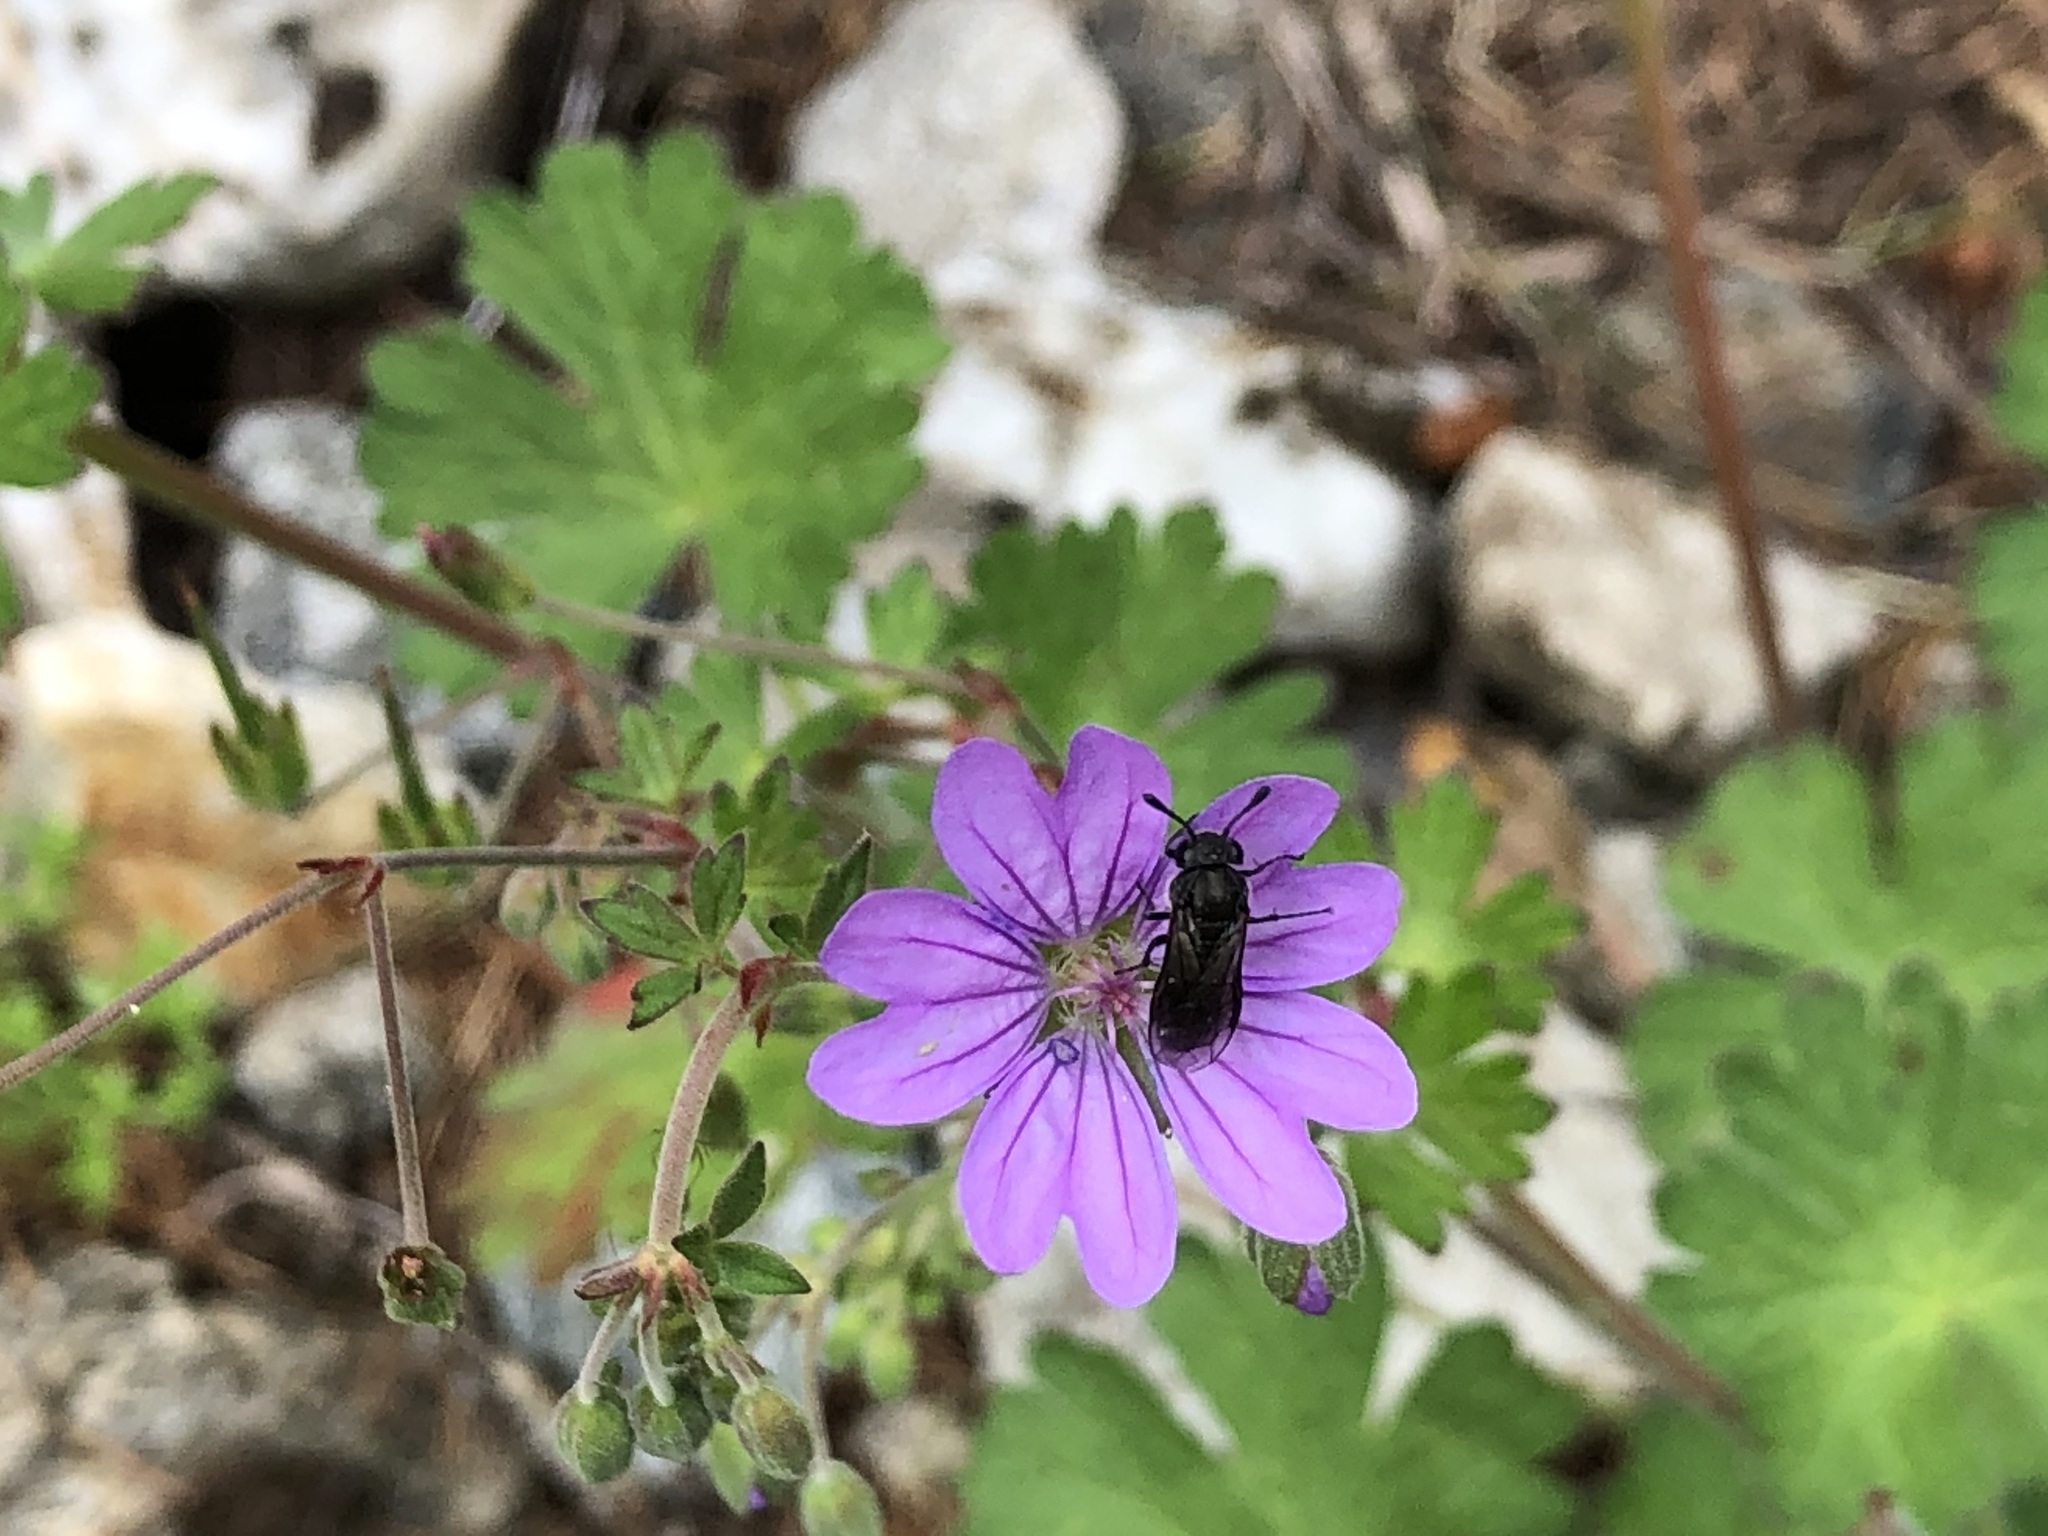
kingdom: Animalia
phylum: Arthropoda
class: Insecta
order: Hymenoptera
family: Cimbicidae
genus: Corynis
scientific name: Corynis obscura
